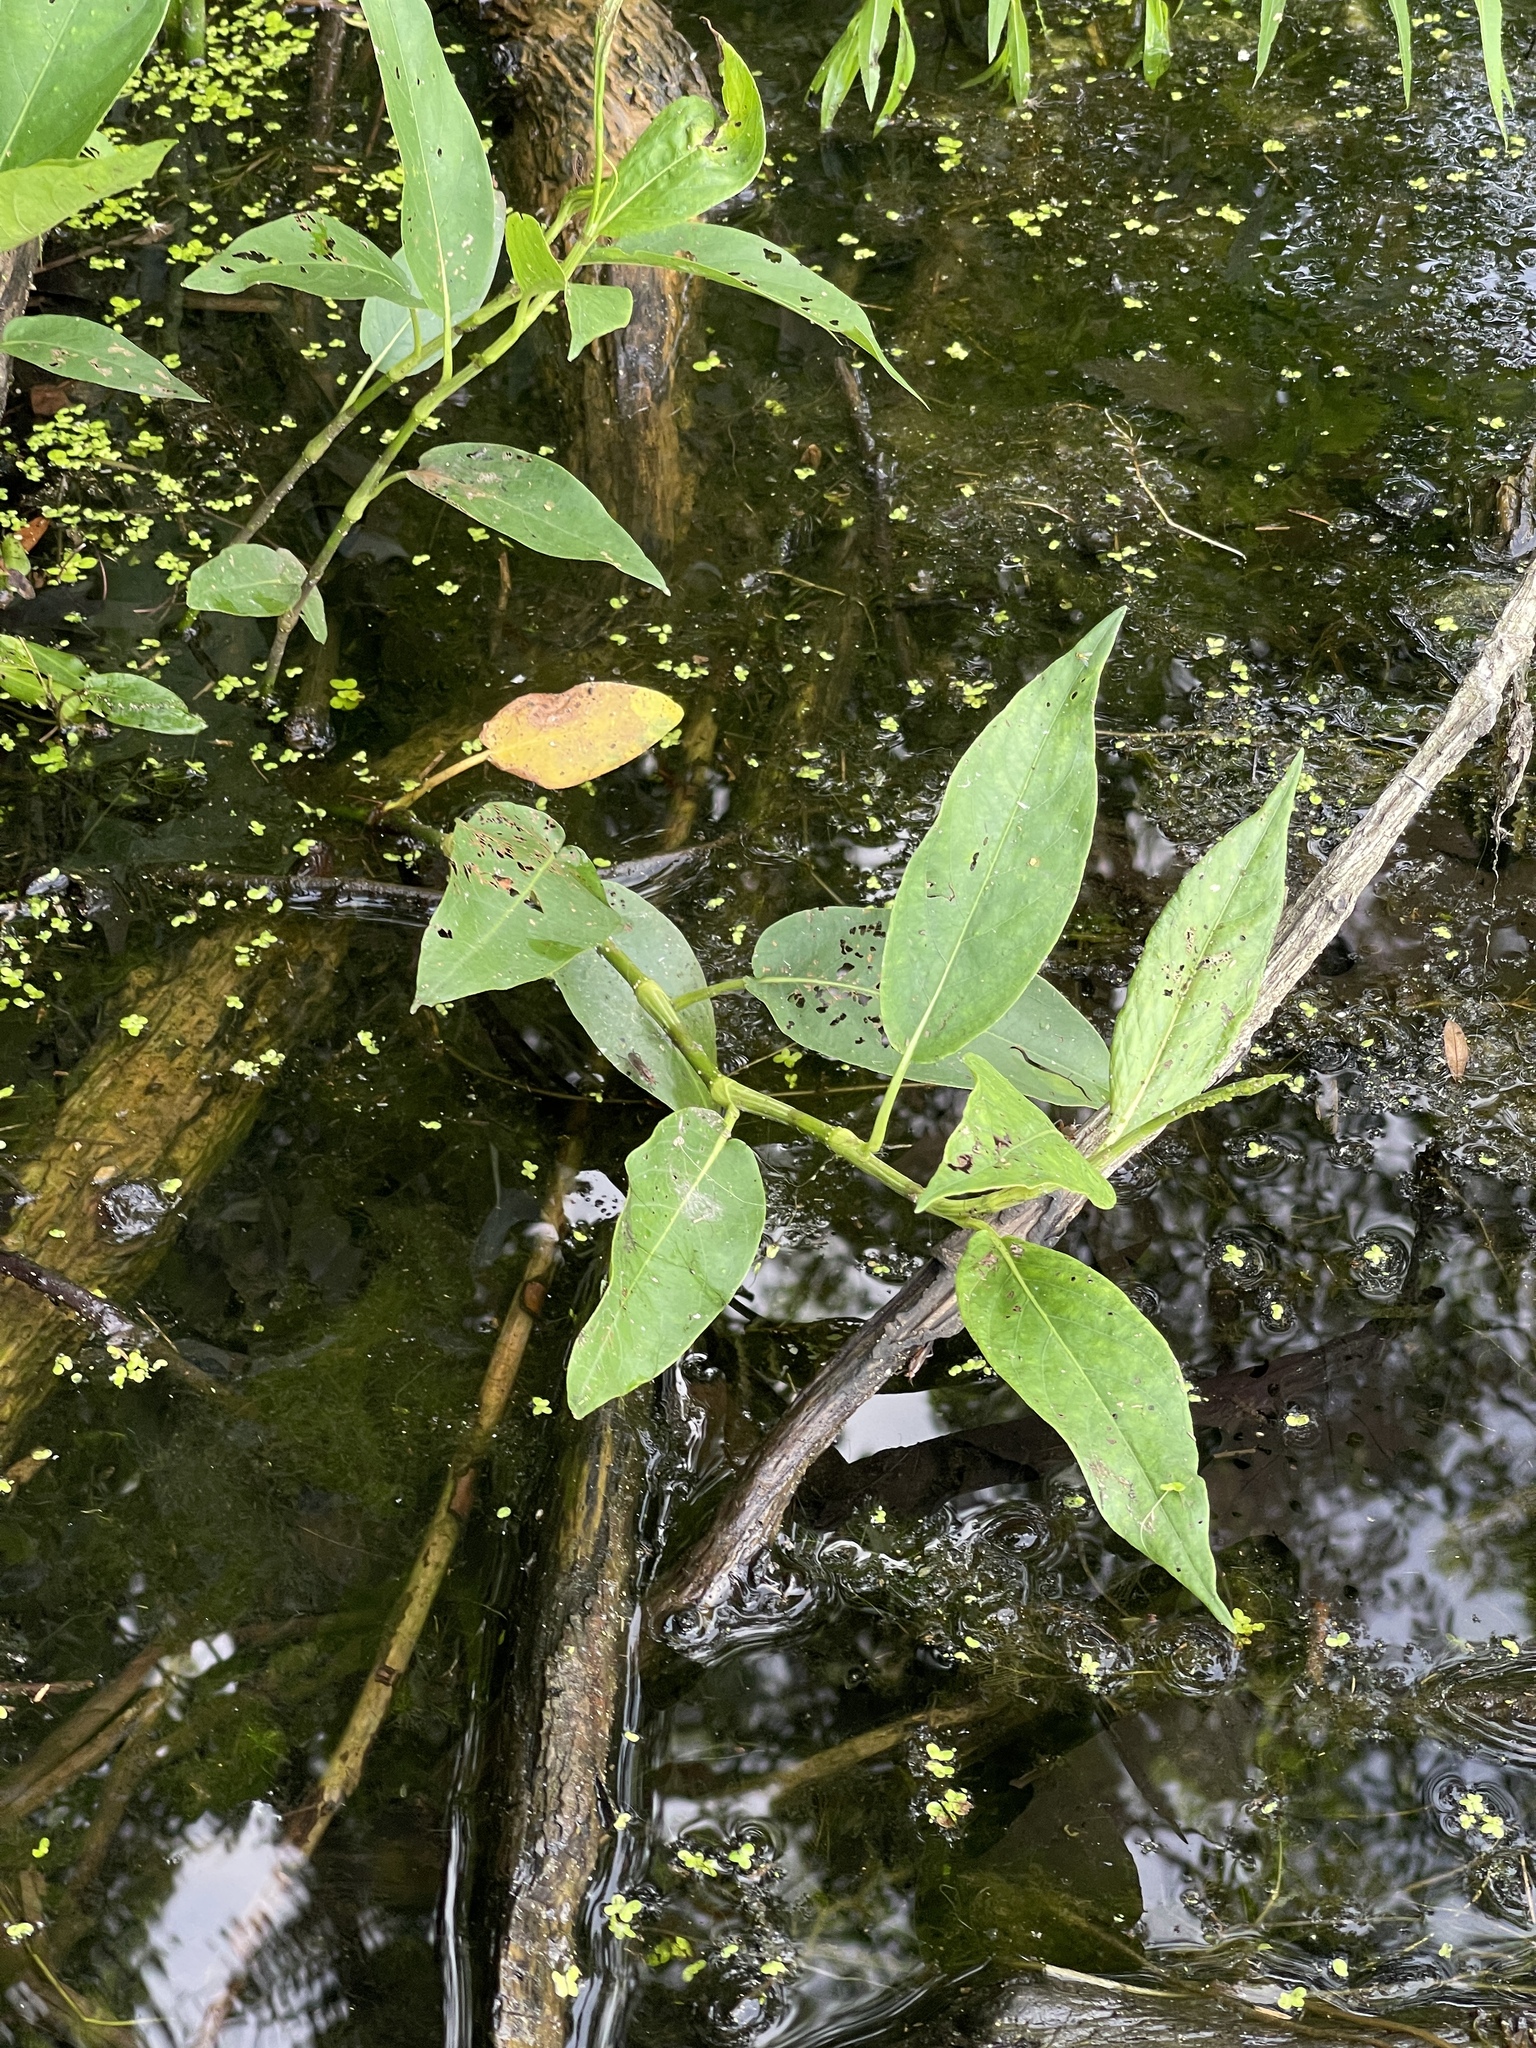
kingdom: Plantae
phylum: Tracheophyta
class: Magnoliopsida
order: Caryophyllales
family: Polygonaceae
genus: Persicaria
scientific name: Persicaria amphibia
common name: Amphibious bistort
